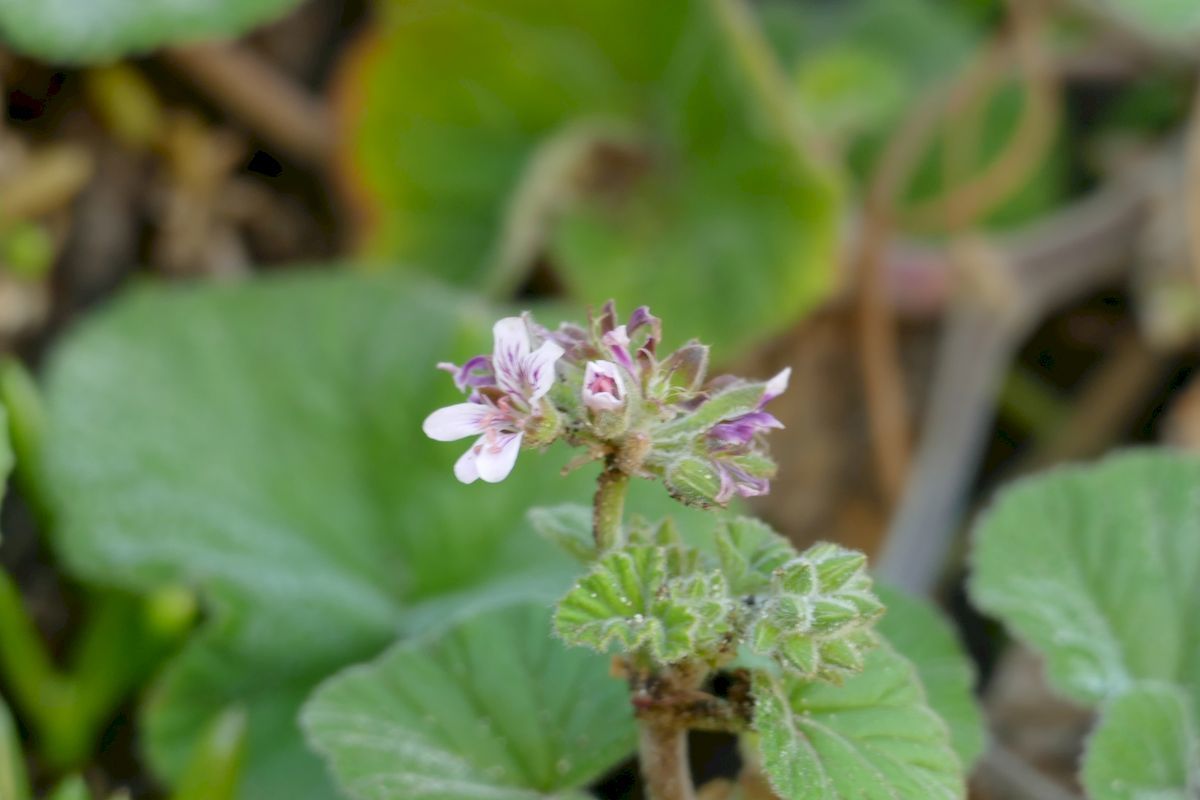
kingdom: Plantae
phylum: Tracheophyta
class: Magnoliopsida
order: Geraniales
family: Geraniaceae
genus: Pelargonium
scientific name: Pelargonium australe
